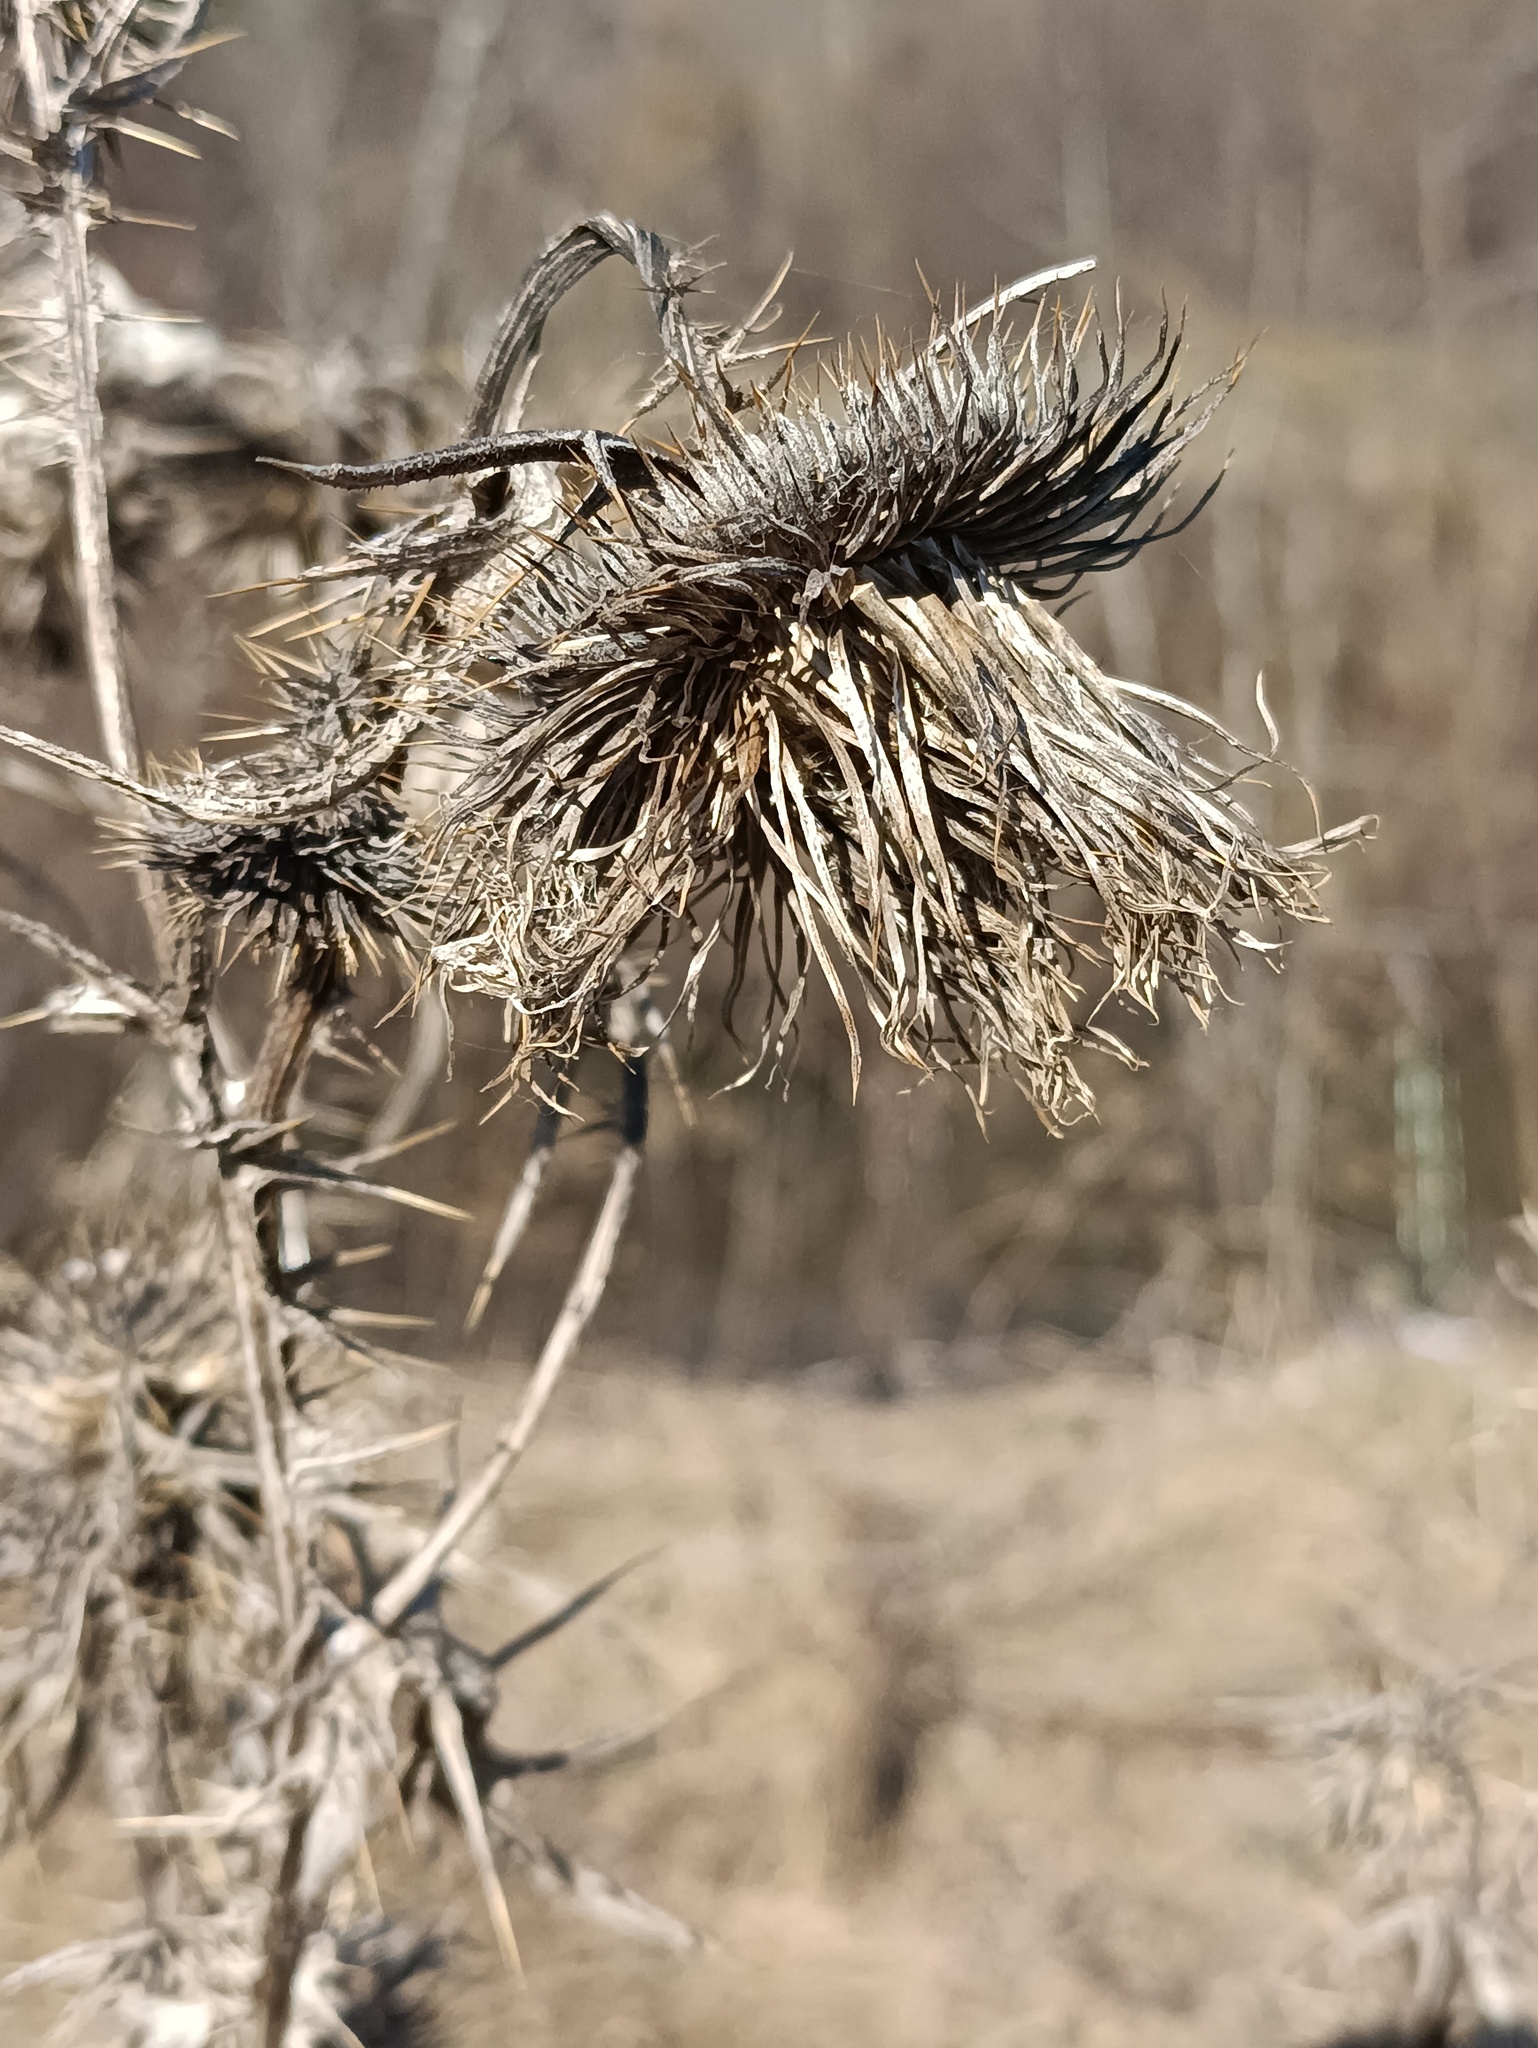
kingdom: Plantae
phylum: Tracheophyta
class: Magnoliopsida
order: Asterales
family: Asteraceae
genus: Cirsium
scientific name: Cirsium vulgare
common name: Bull thistle
